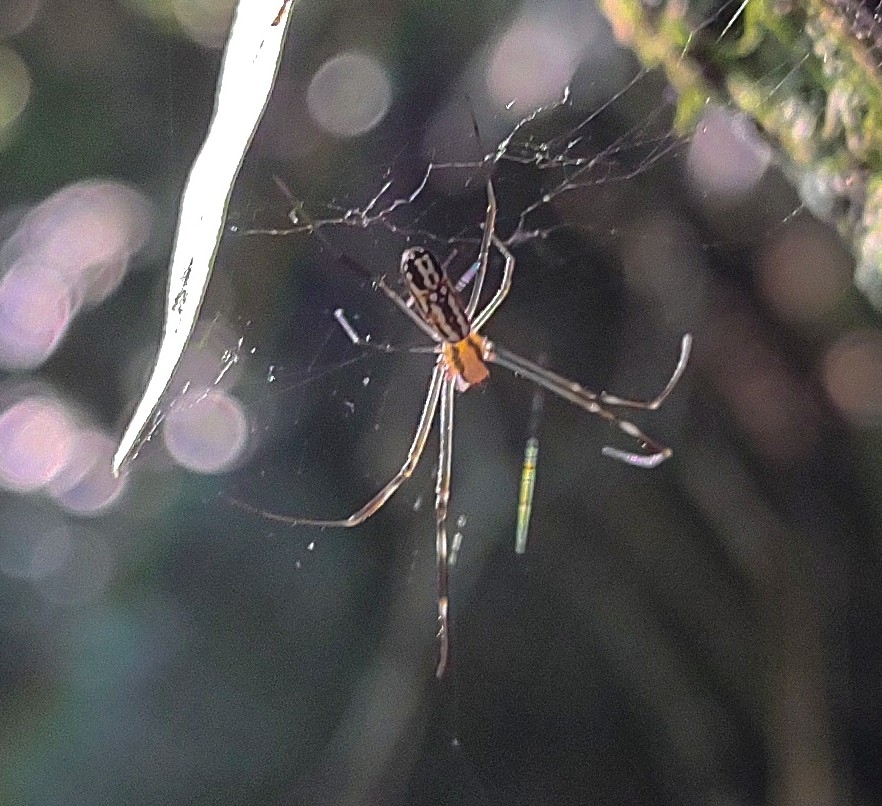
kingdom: Animalia
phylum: Arthropoda
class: Arachnida
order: Araneae
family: Araneidae
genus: Trichonephila
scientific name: Trichonephila clavipes
